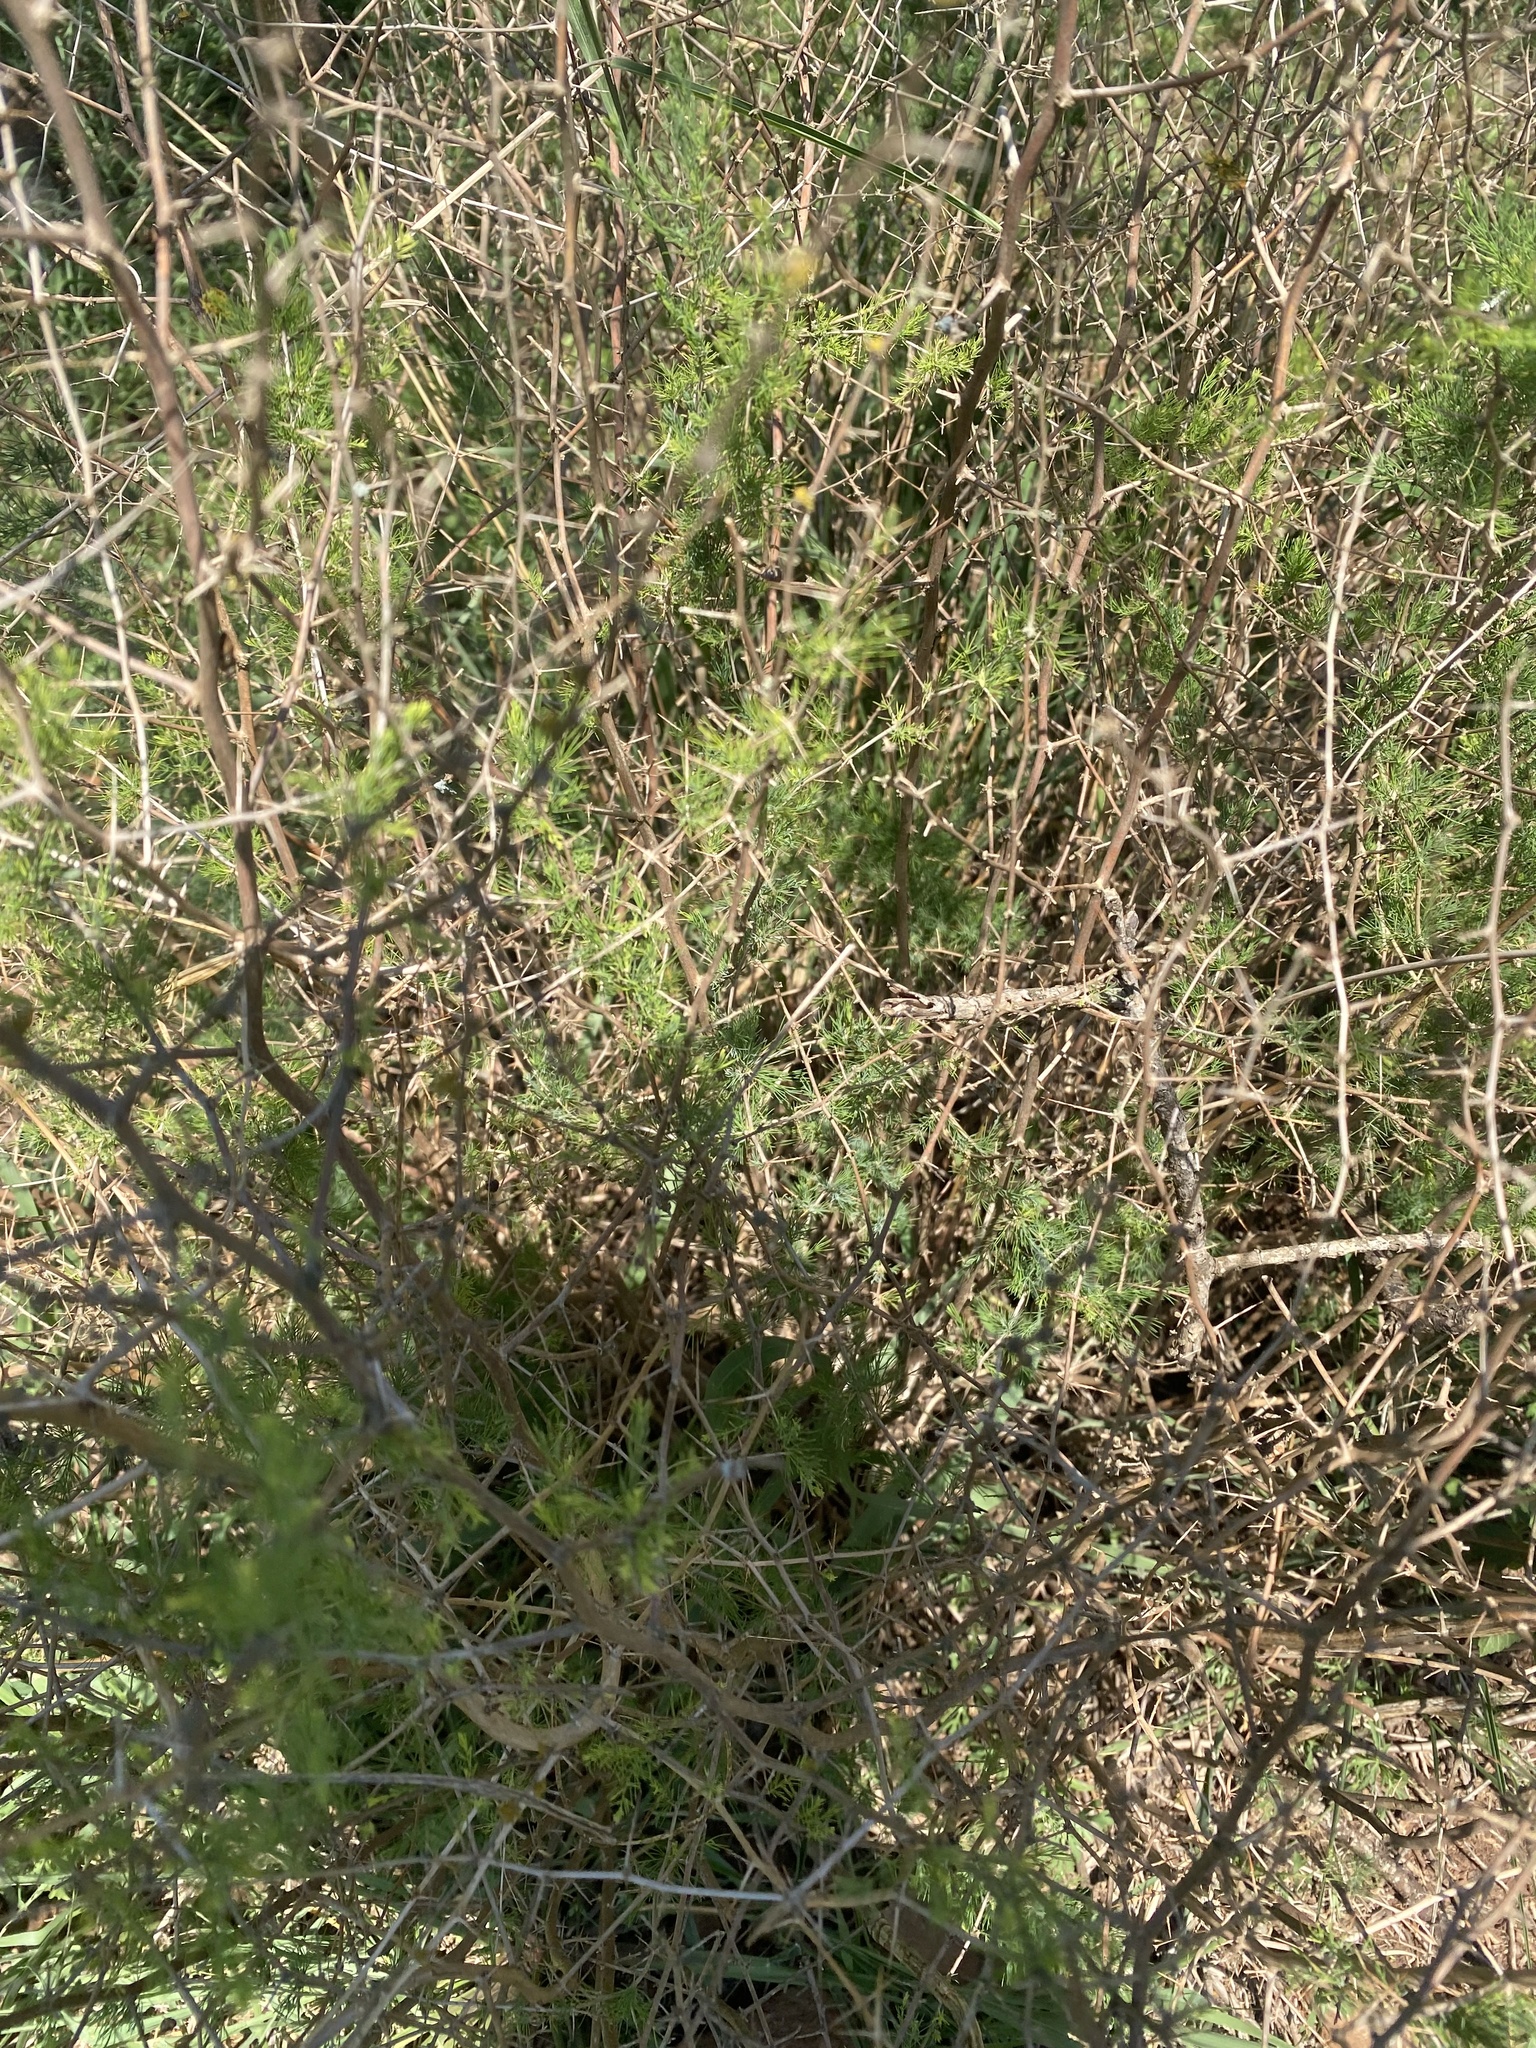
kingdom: Plantae
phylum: Tracheophyta
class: Liliopsida
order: Asparagales
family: Asparagaceae
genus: Asparagus
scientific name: Asparagus suaveolens
